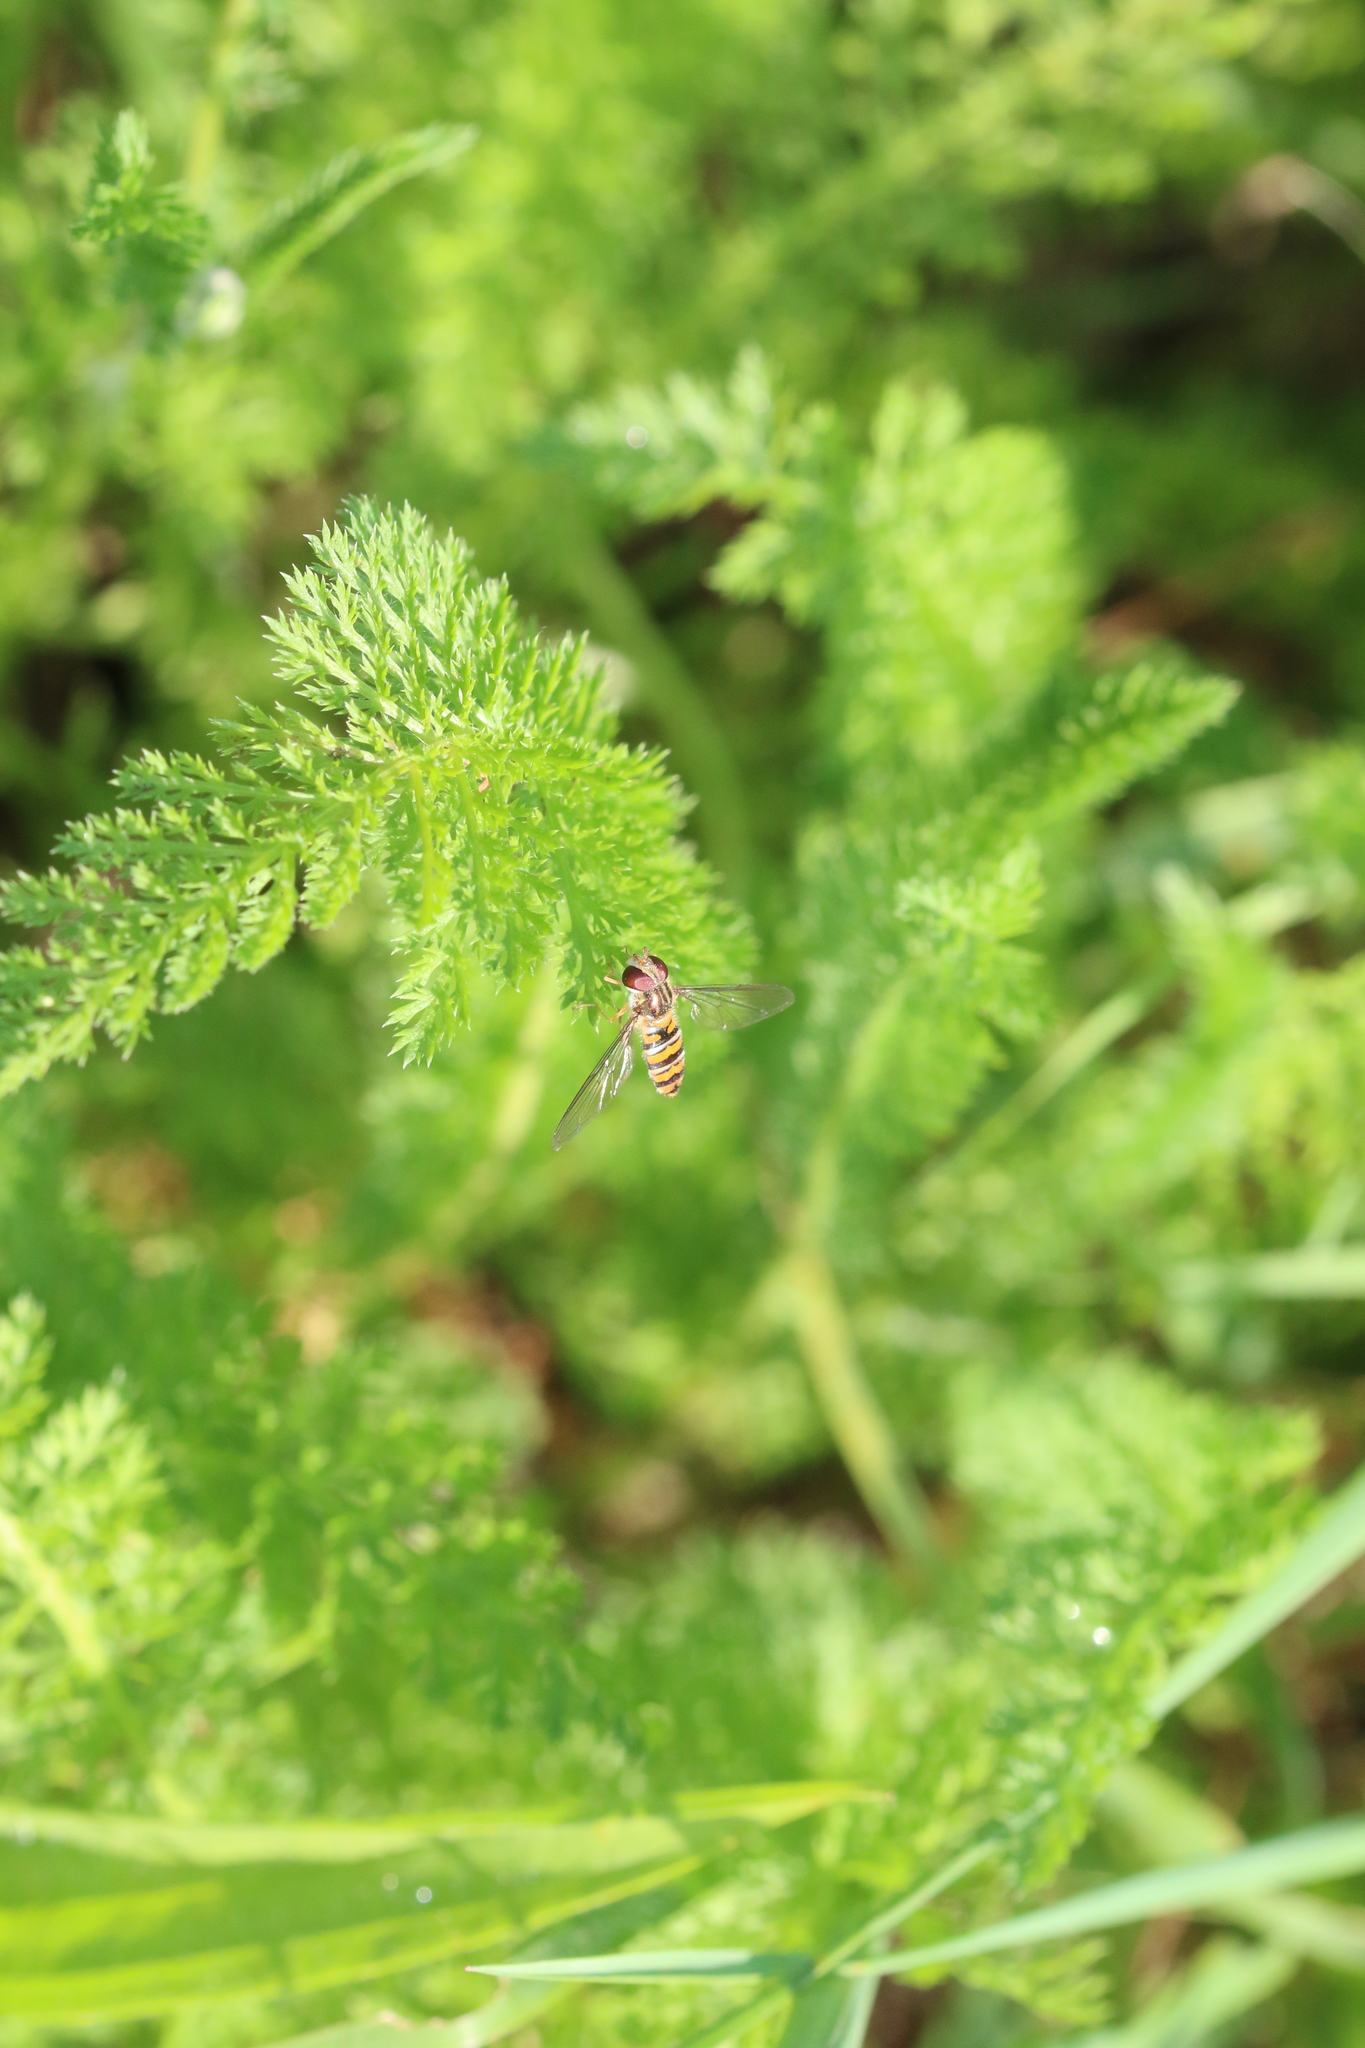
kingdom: Animalia
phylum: Arthropoda
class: Insecta
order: Diptera
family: Syrphidae
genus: Episyrphus
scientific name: Episyrphus balteatus
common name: Marmalade hoverfly
